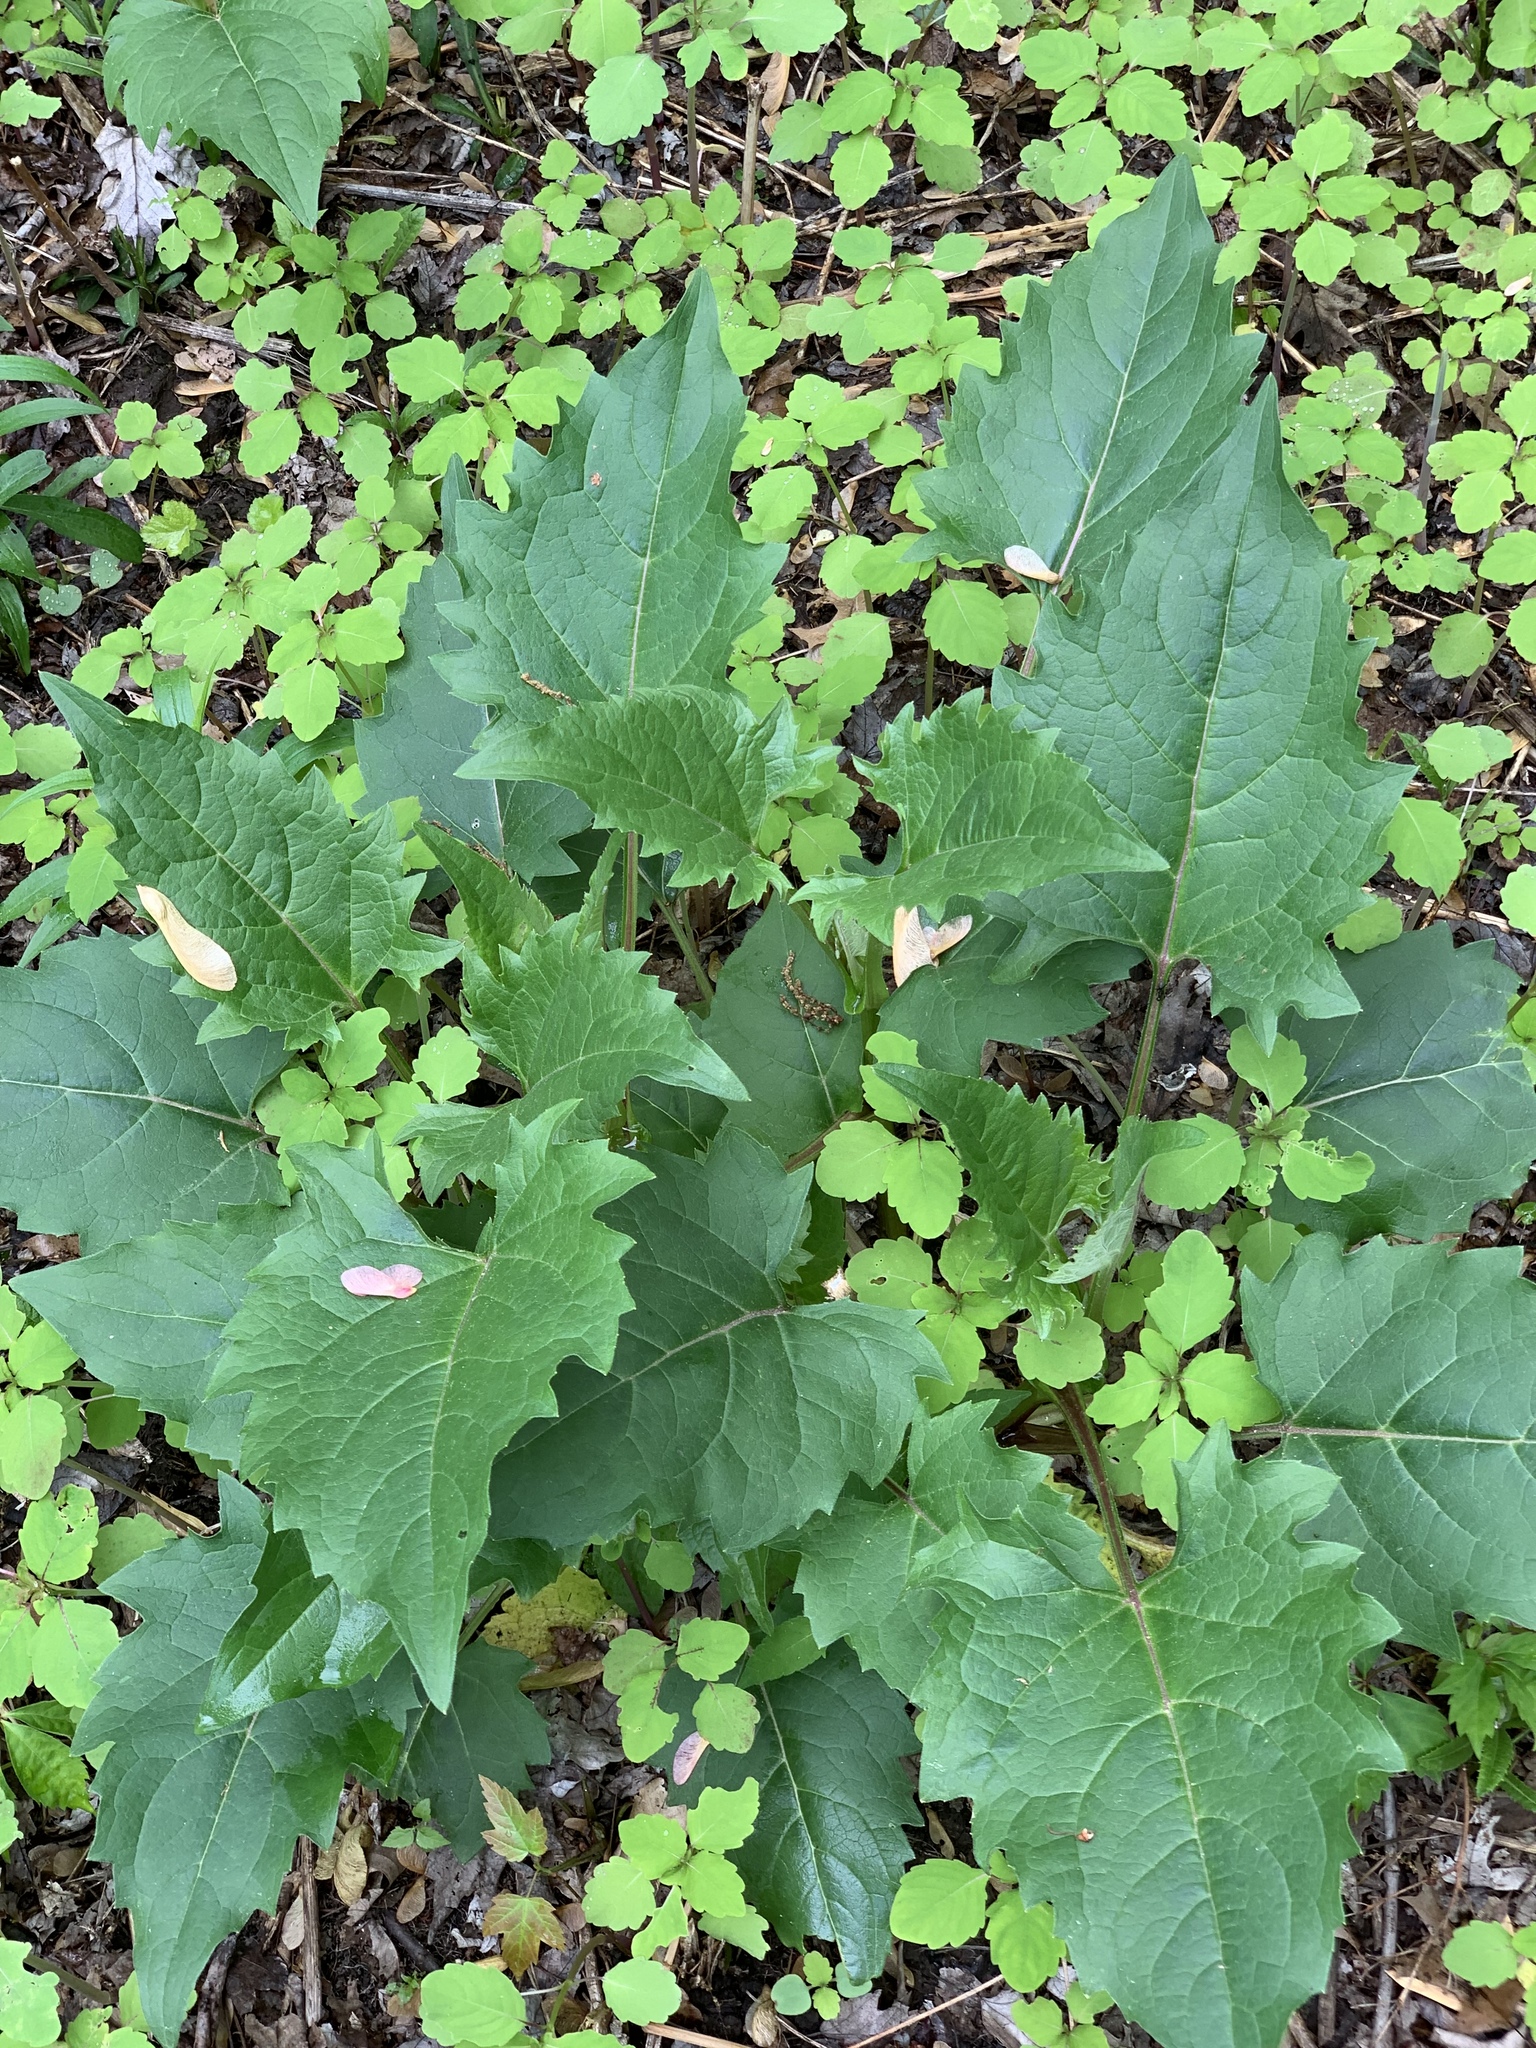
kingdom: Plantae
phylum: Tracheophyta
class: Magnoliopsida
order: Asterales
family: Asteraceae
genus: Silphium
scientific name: Silphium perfoliatum
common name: Cup-plant
